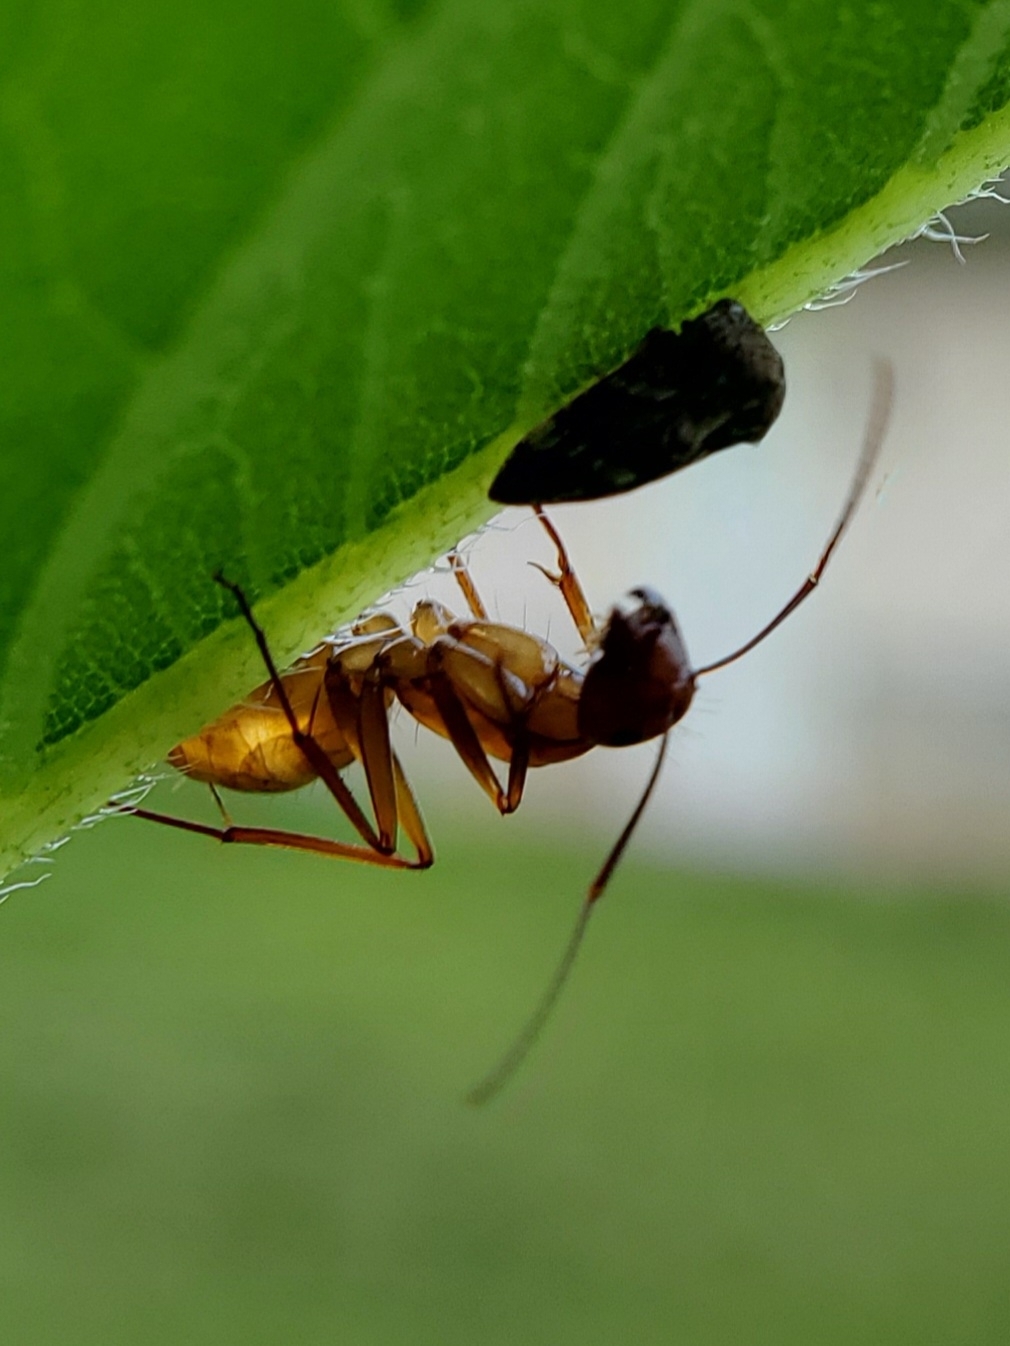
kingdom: Animalia
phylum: Arthropoda
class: Insecta
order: Hymenoptera
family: Formicidae
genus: Camponotus
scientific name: Camponotus castaneus
